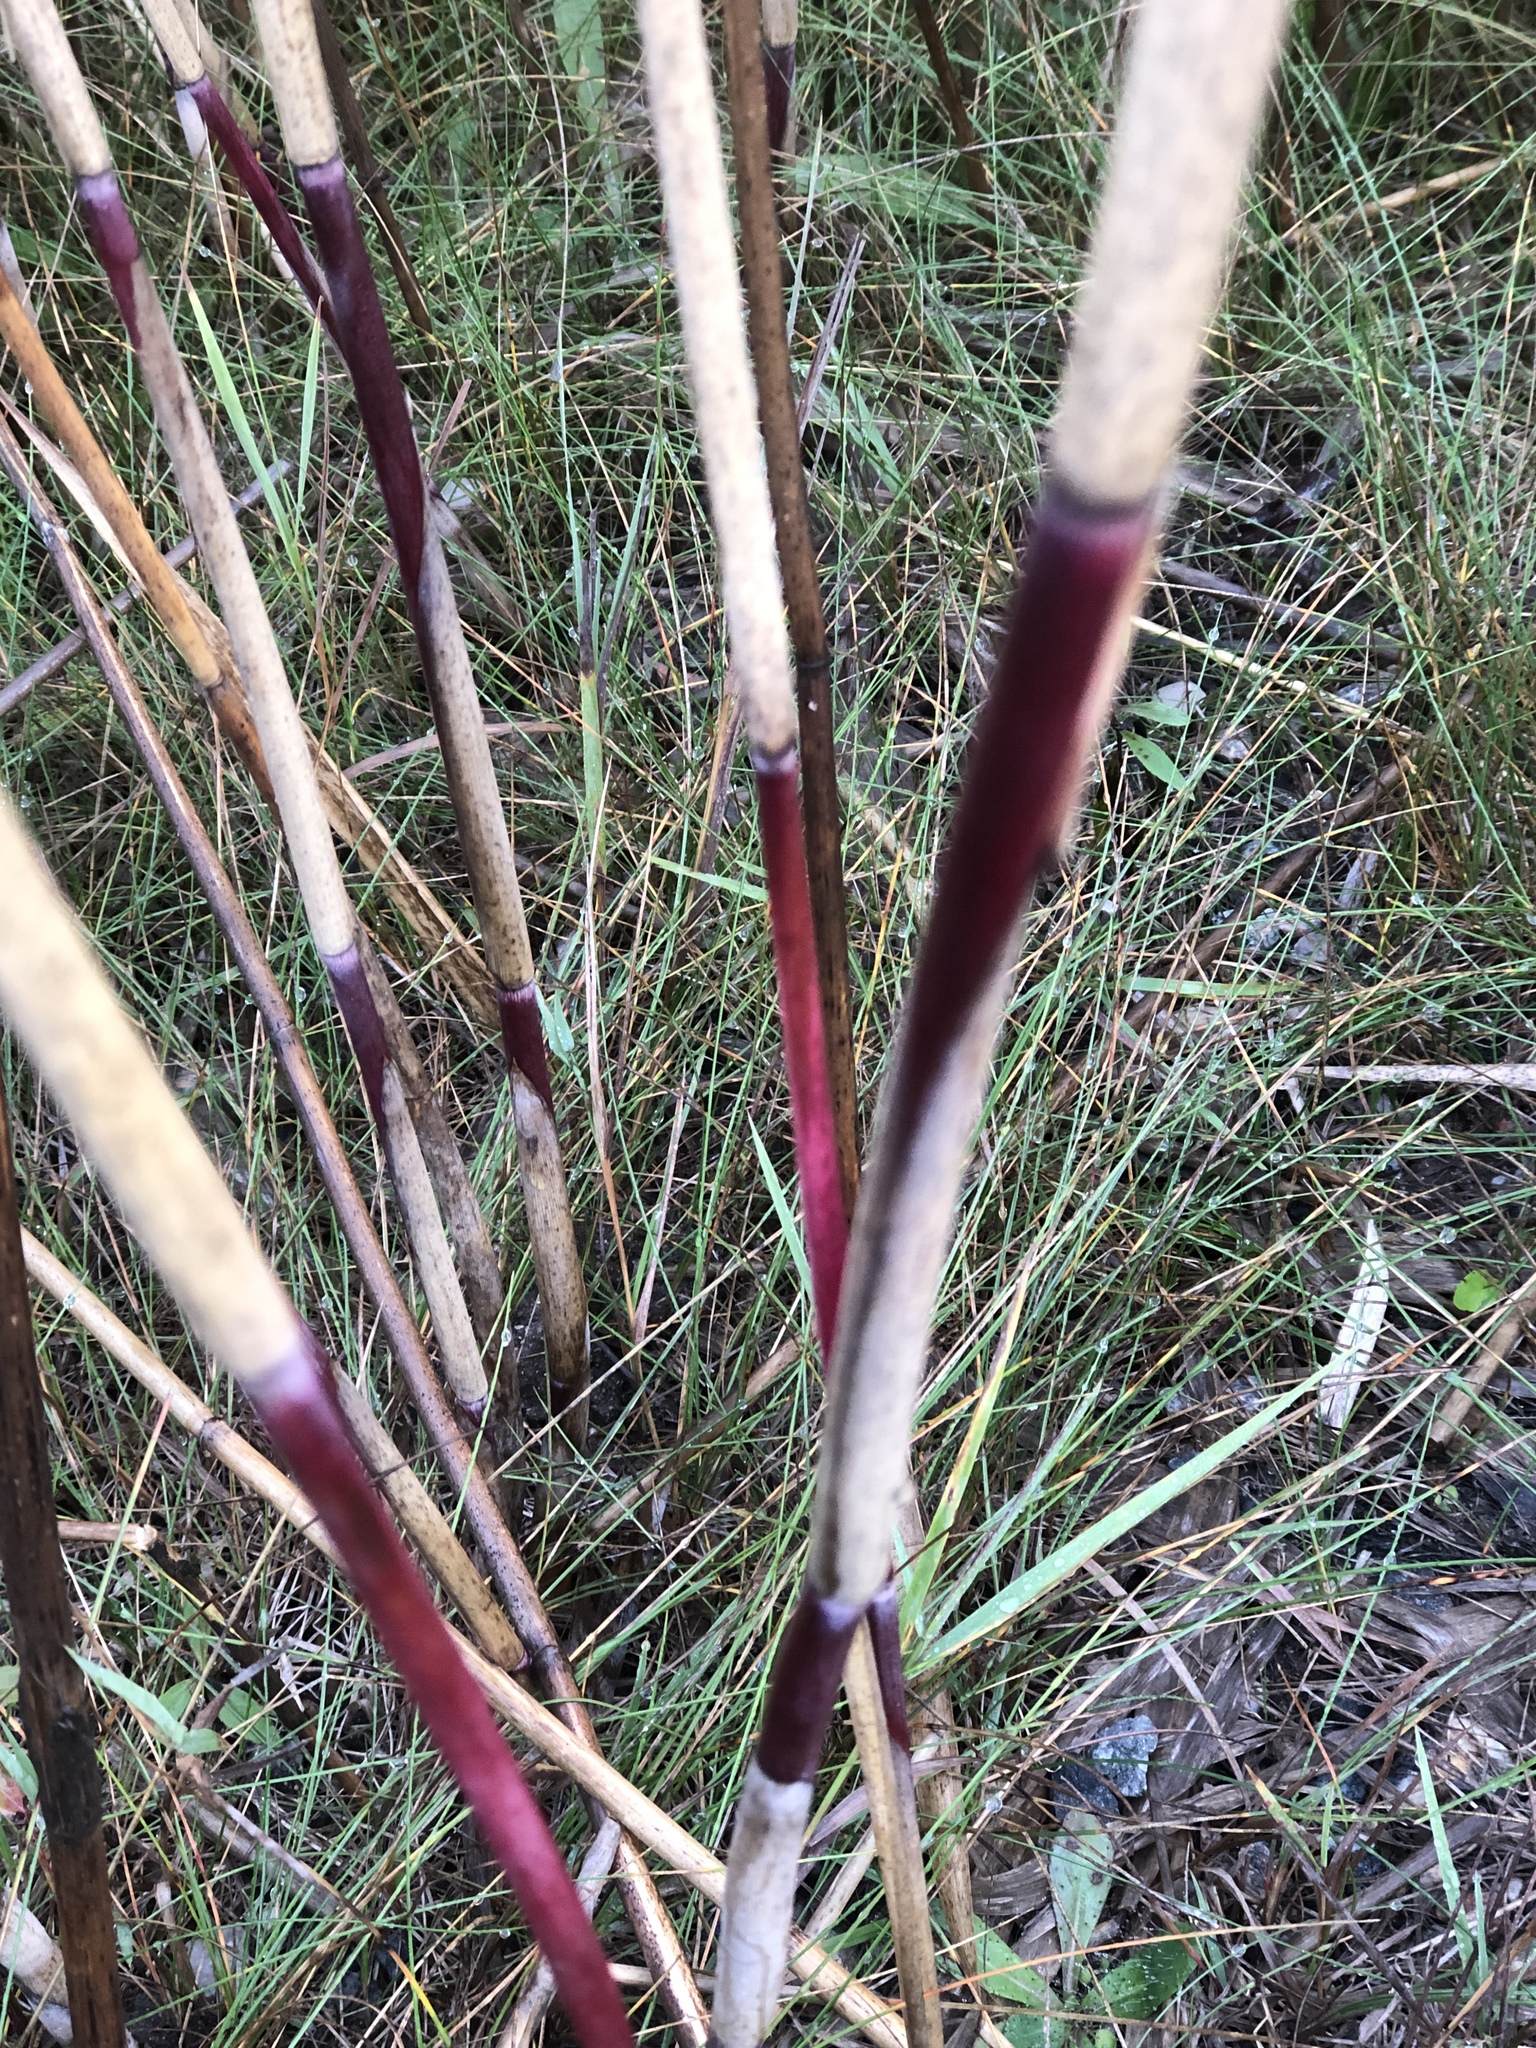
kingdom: Plantae
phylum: Tracheophyta
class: Liliopsida
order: Poales
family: Poaceae
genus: Phragmites
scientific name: Phragmites australis
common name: Common reed
